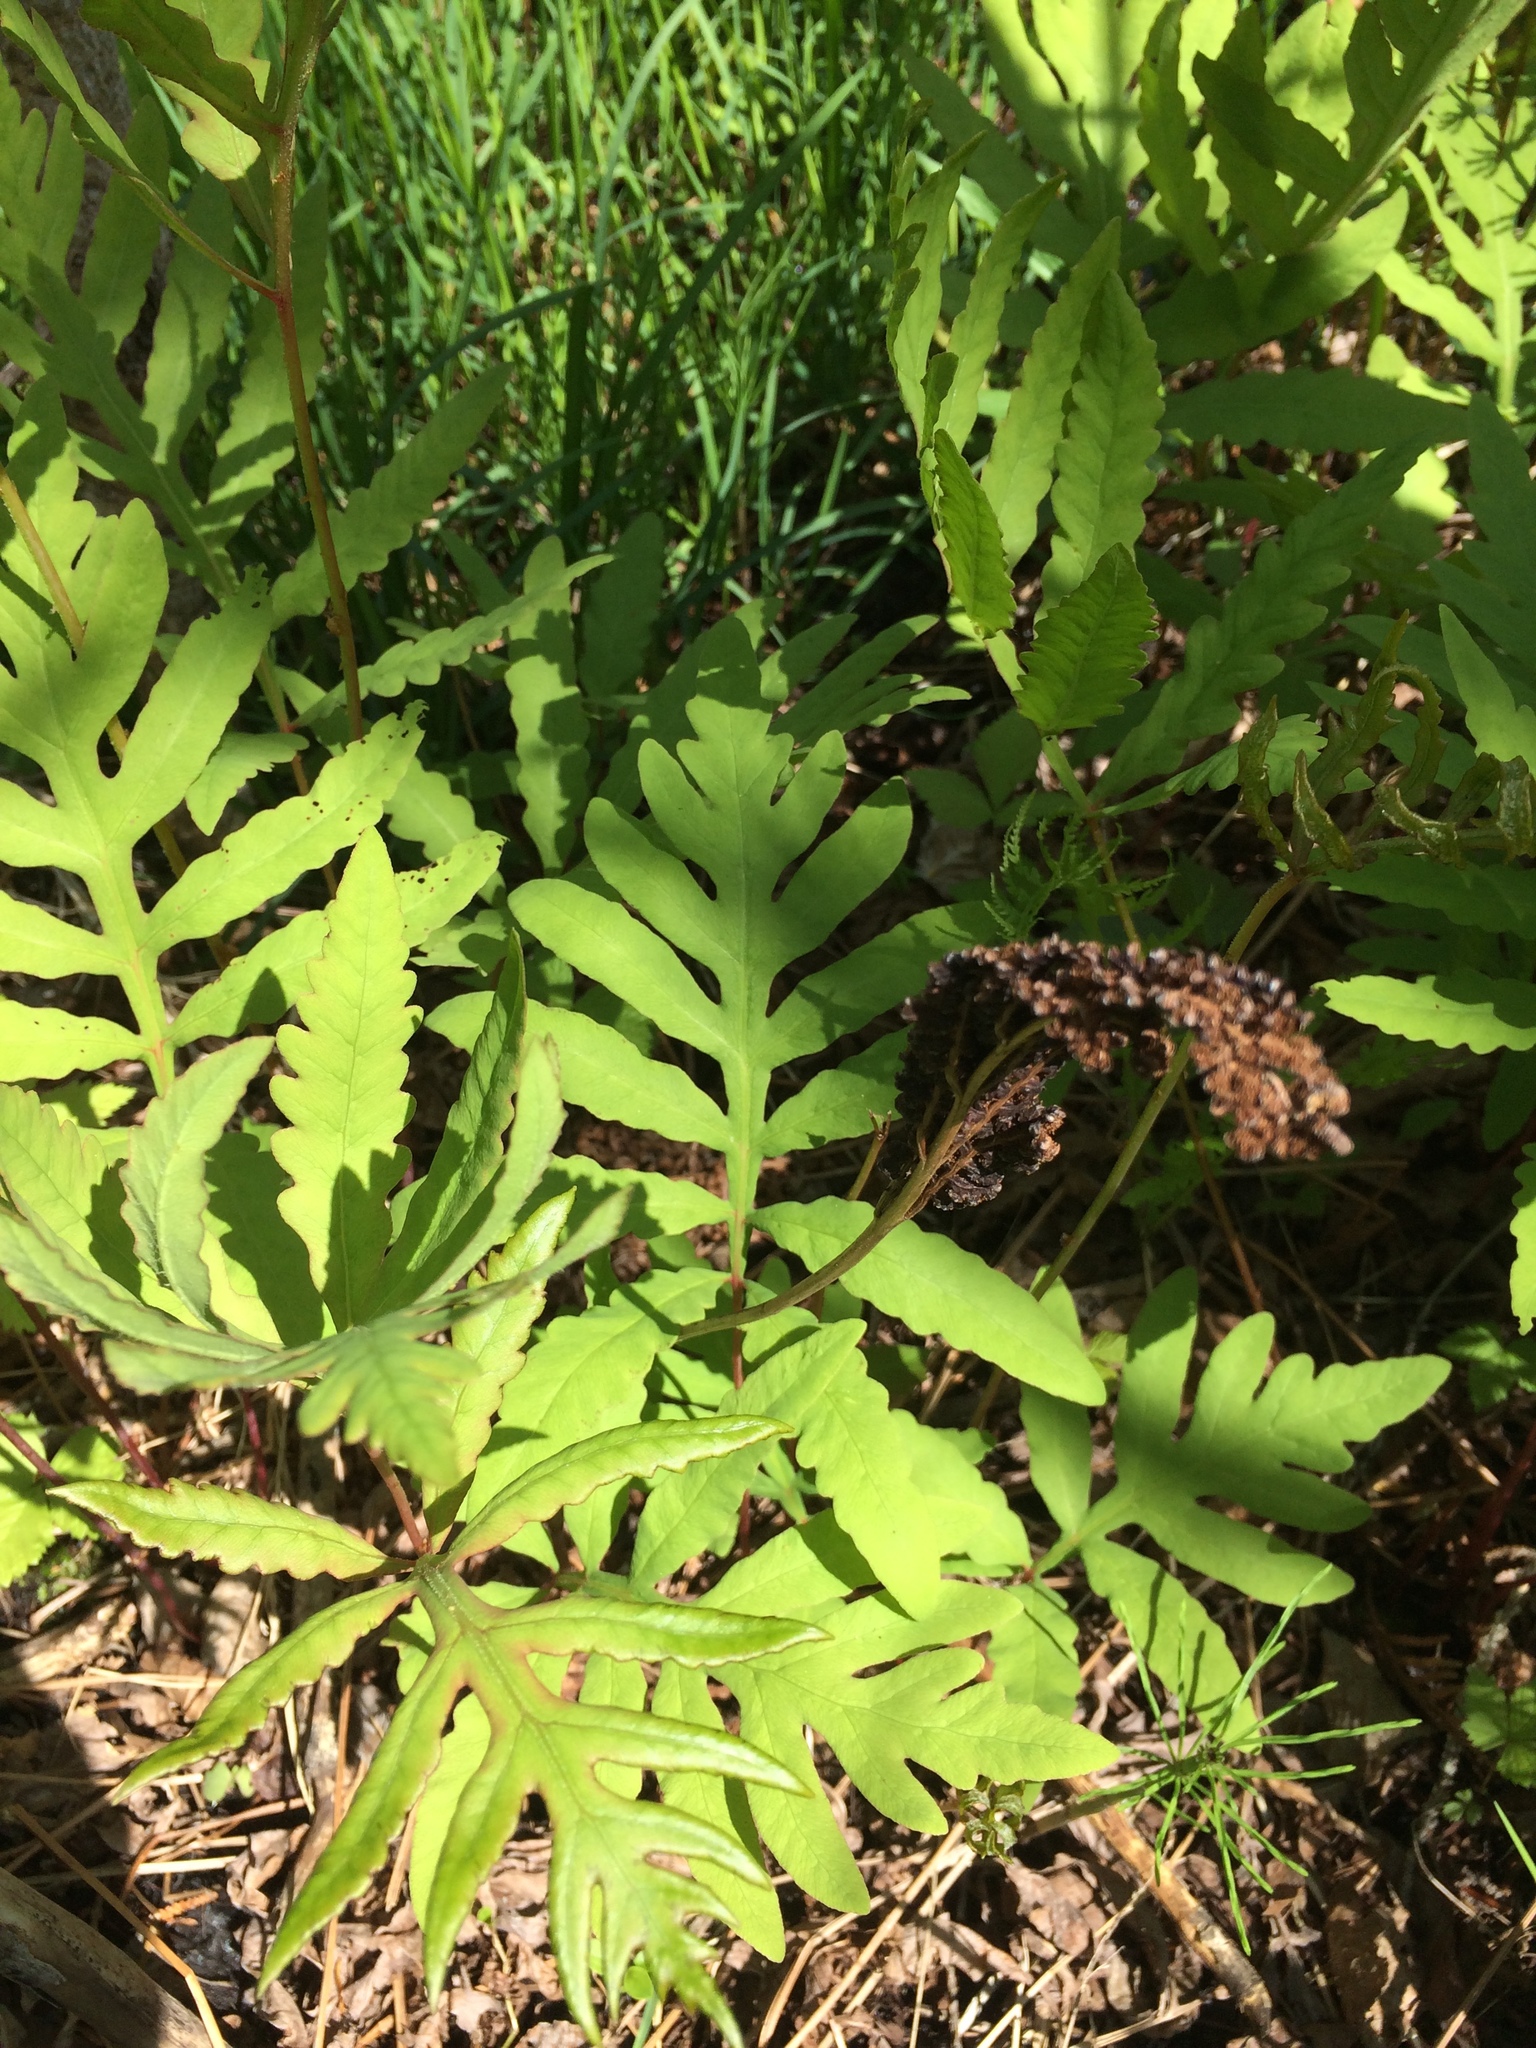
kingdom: Plantae
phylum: Tracheophyta
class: Polypodiopsida
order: Polypodiales
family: Onocleaceae
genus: Onoclea
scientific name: Onoclea sensibilis
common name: Sensitive fern
